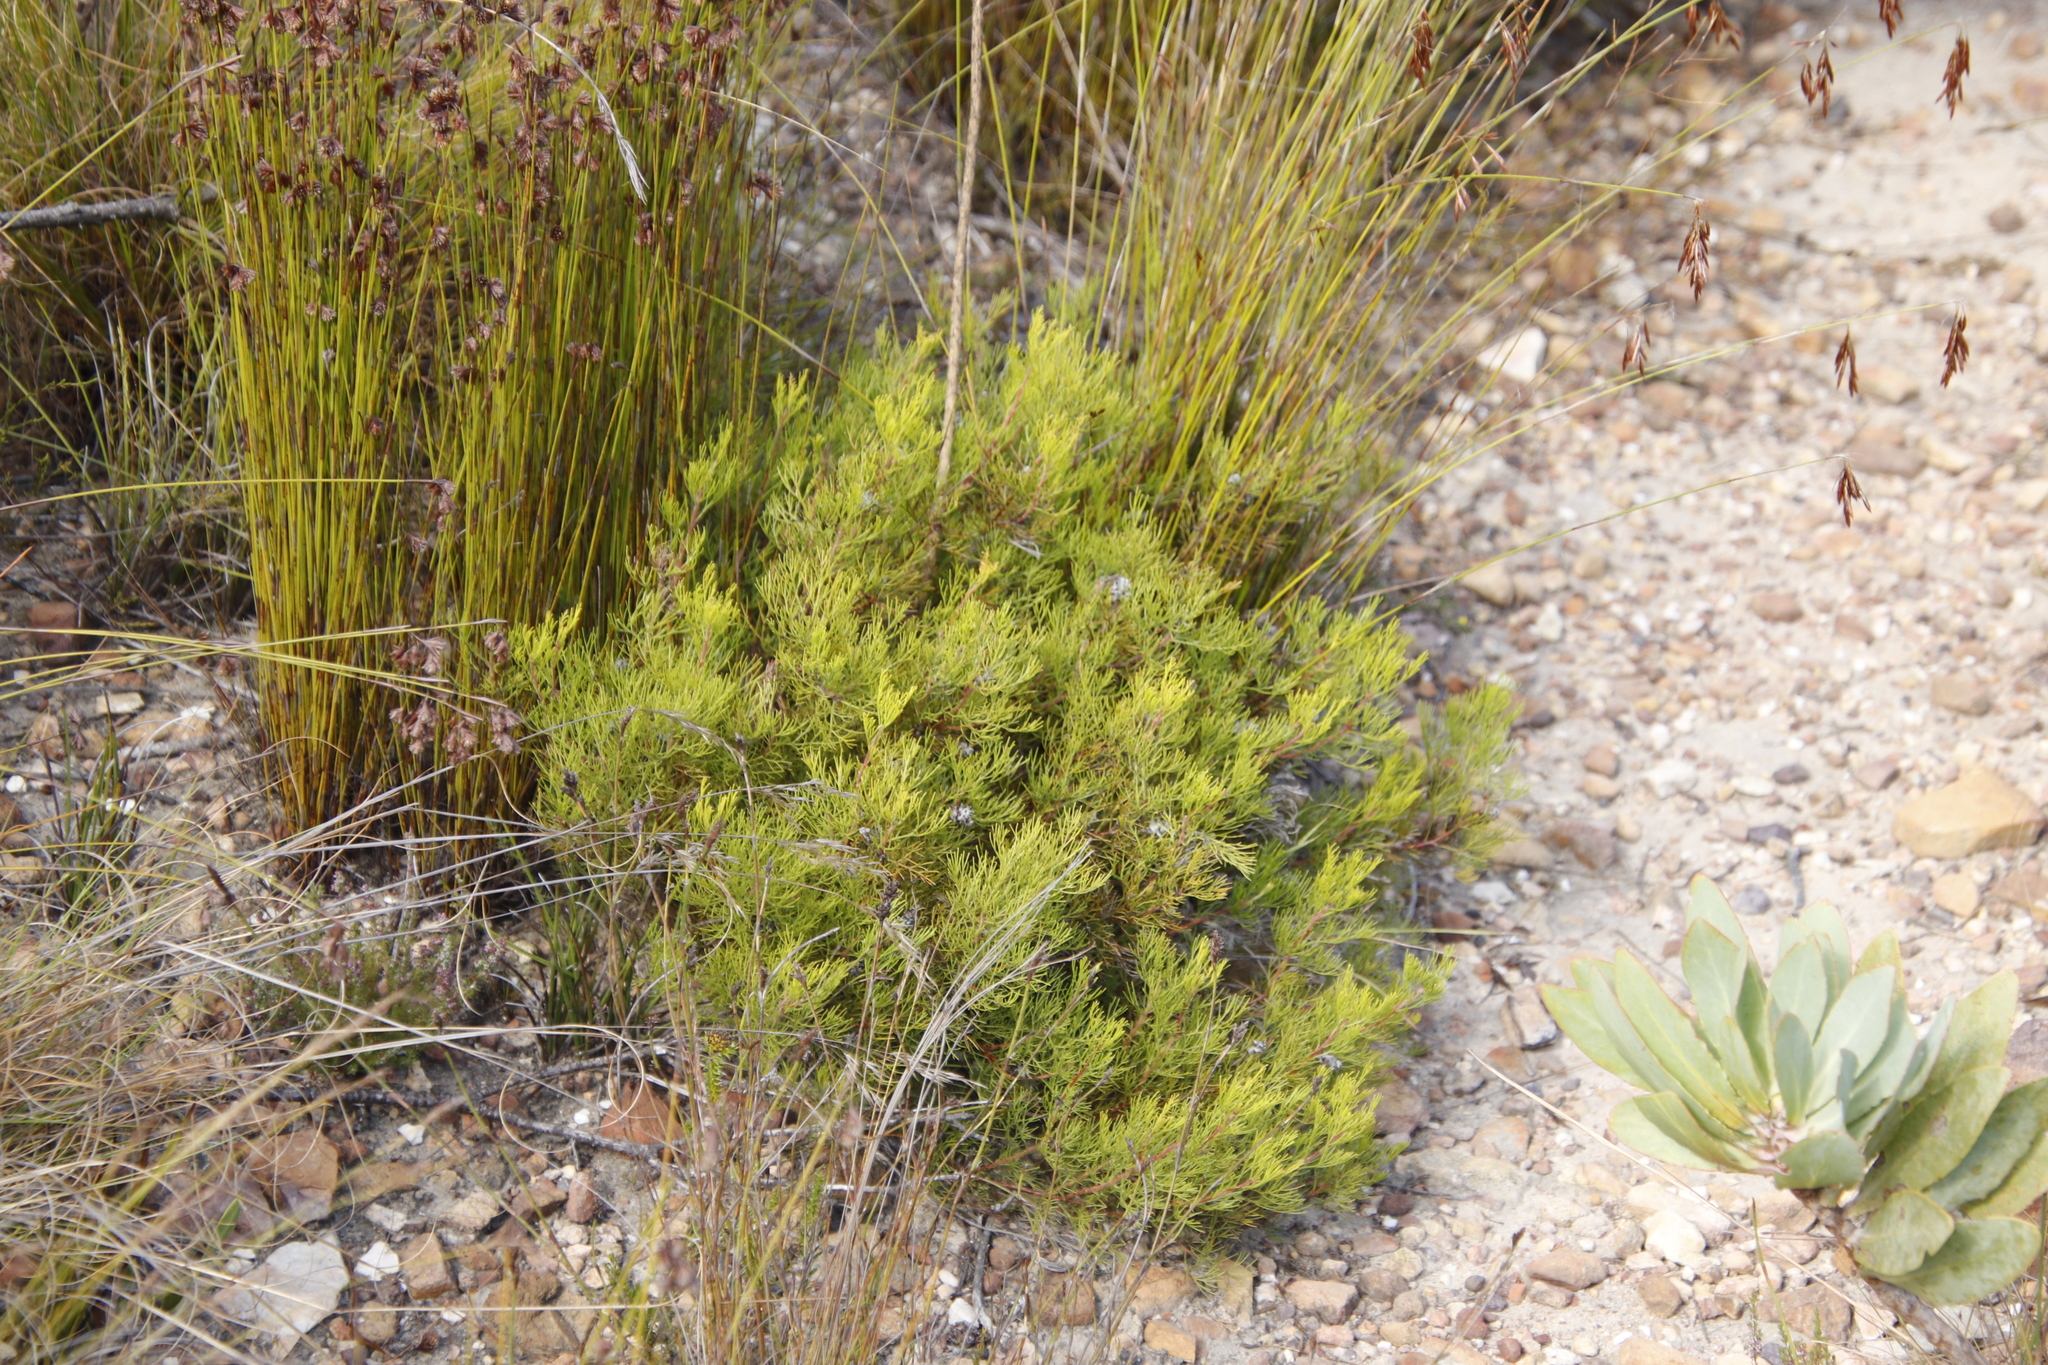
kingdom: Plantae
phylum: Tracheophyta
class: Magnoliopsida
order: Proteales
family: Proteaceae
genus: Serruria
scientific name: Serruria
